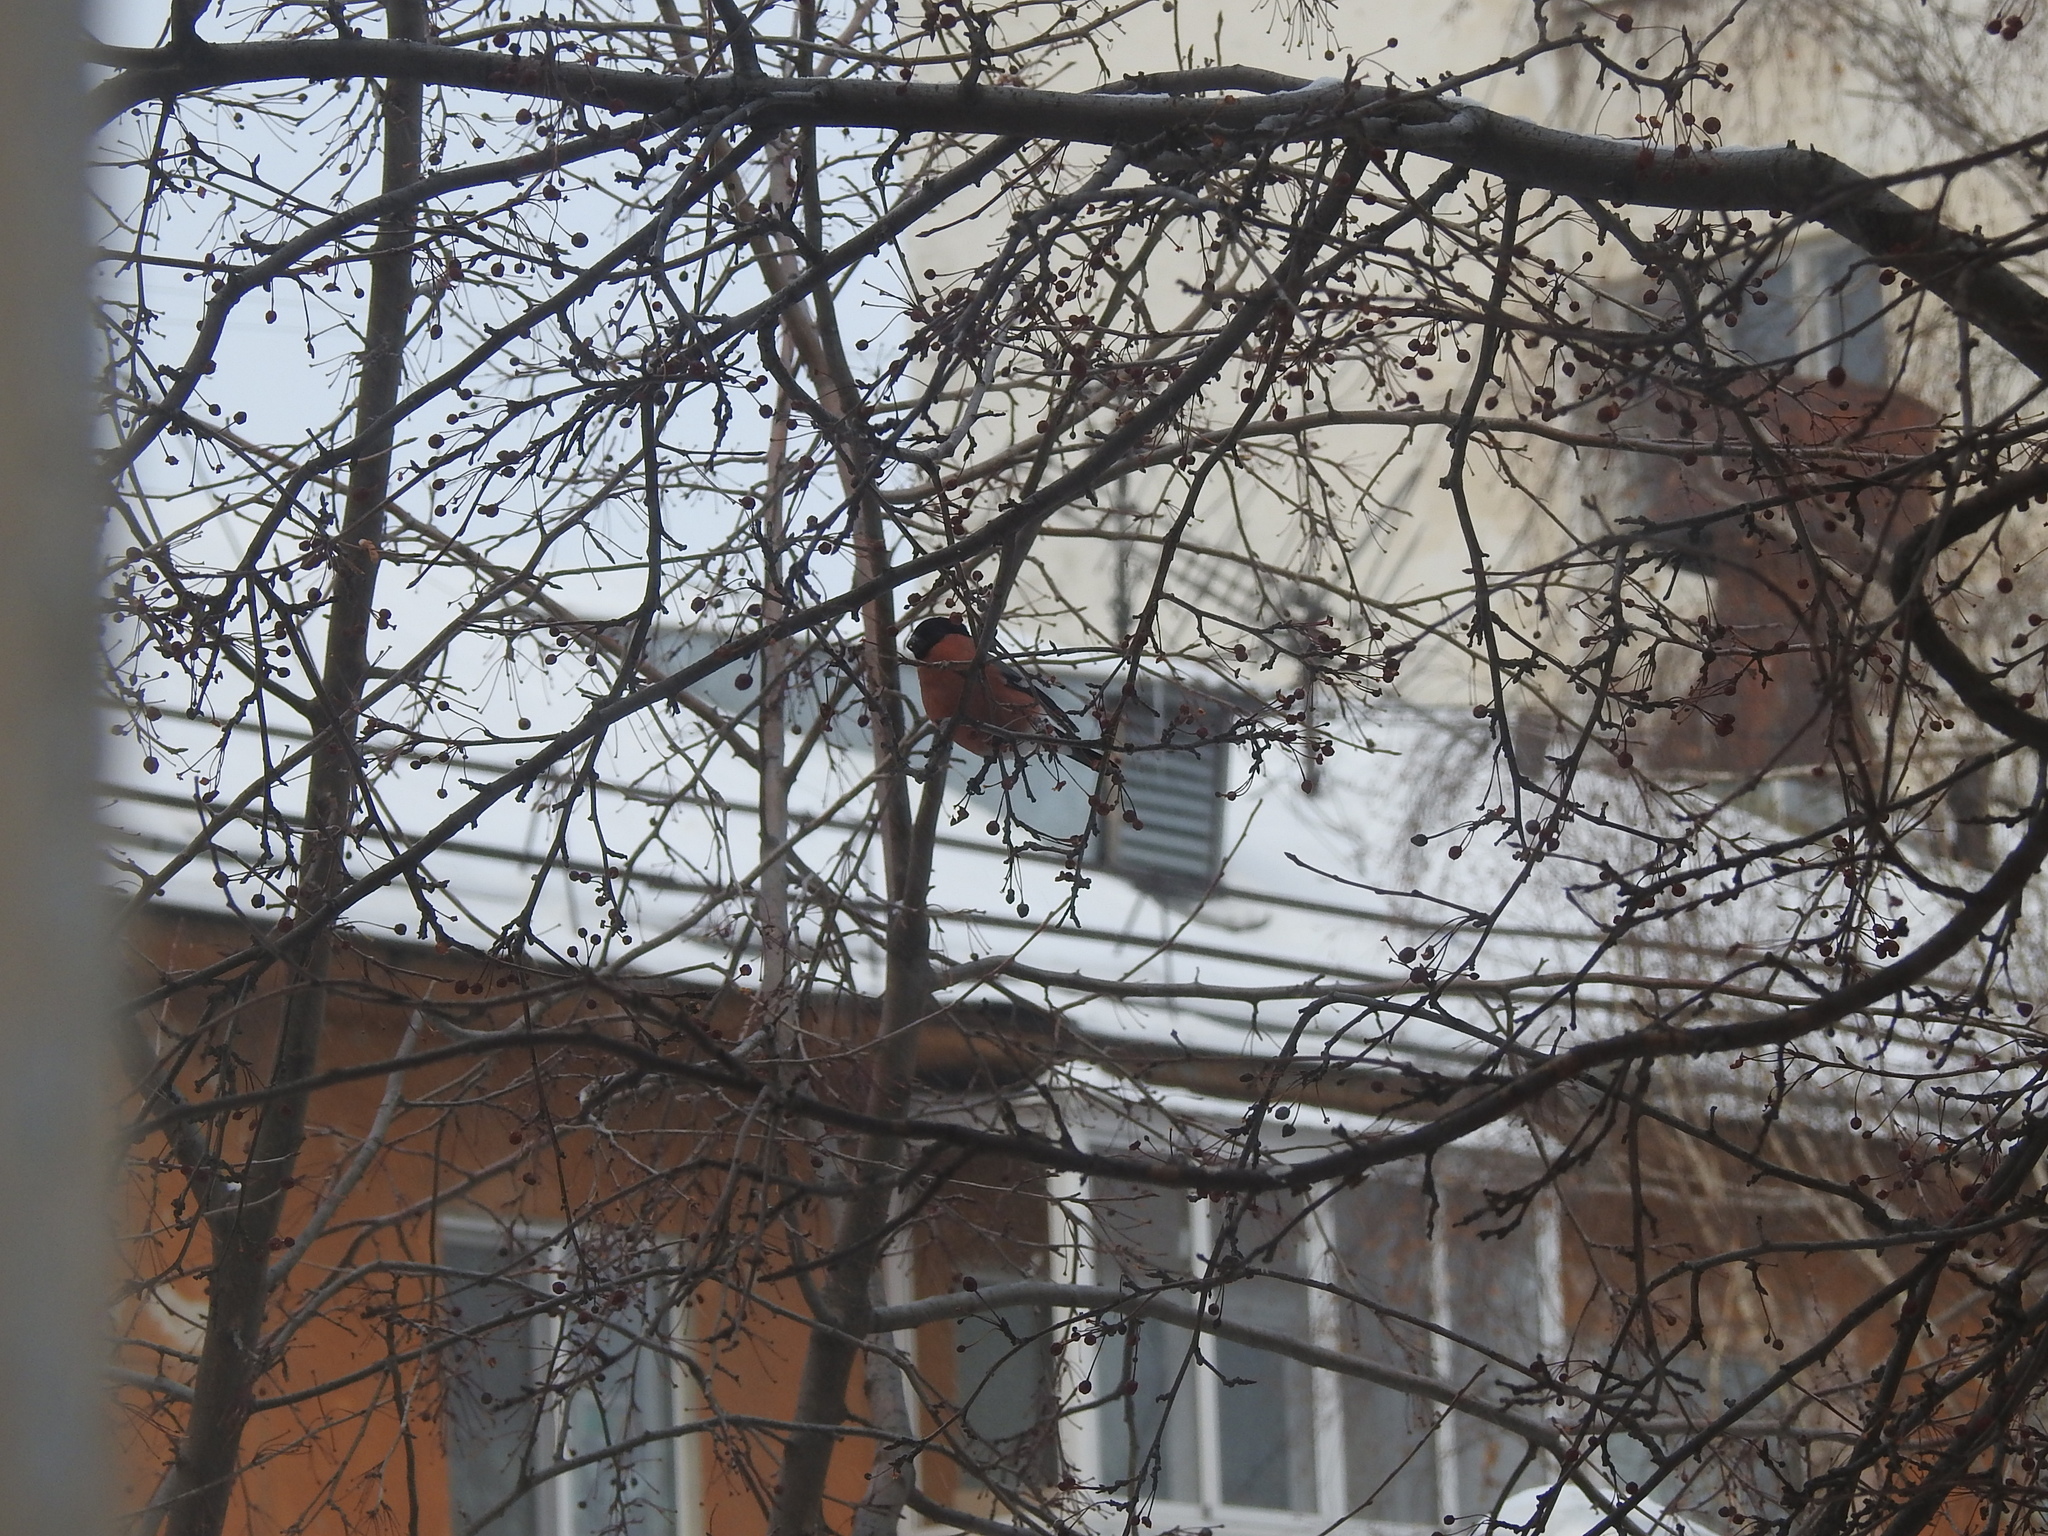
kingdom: Animalia
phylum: Chordata
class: Aves
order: Passeriformes
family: Fringillidae
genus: Pyrrhula
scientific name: Pyrrhula pyrrhula
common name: Eurasian bullfinch
